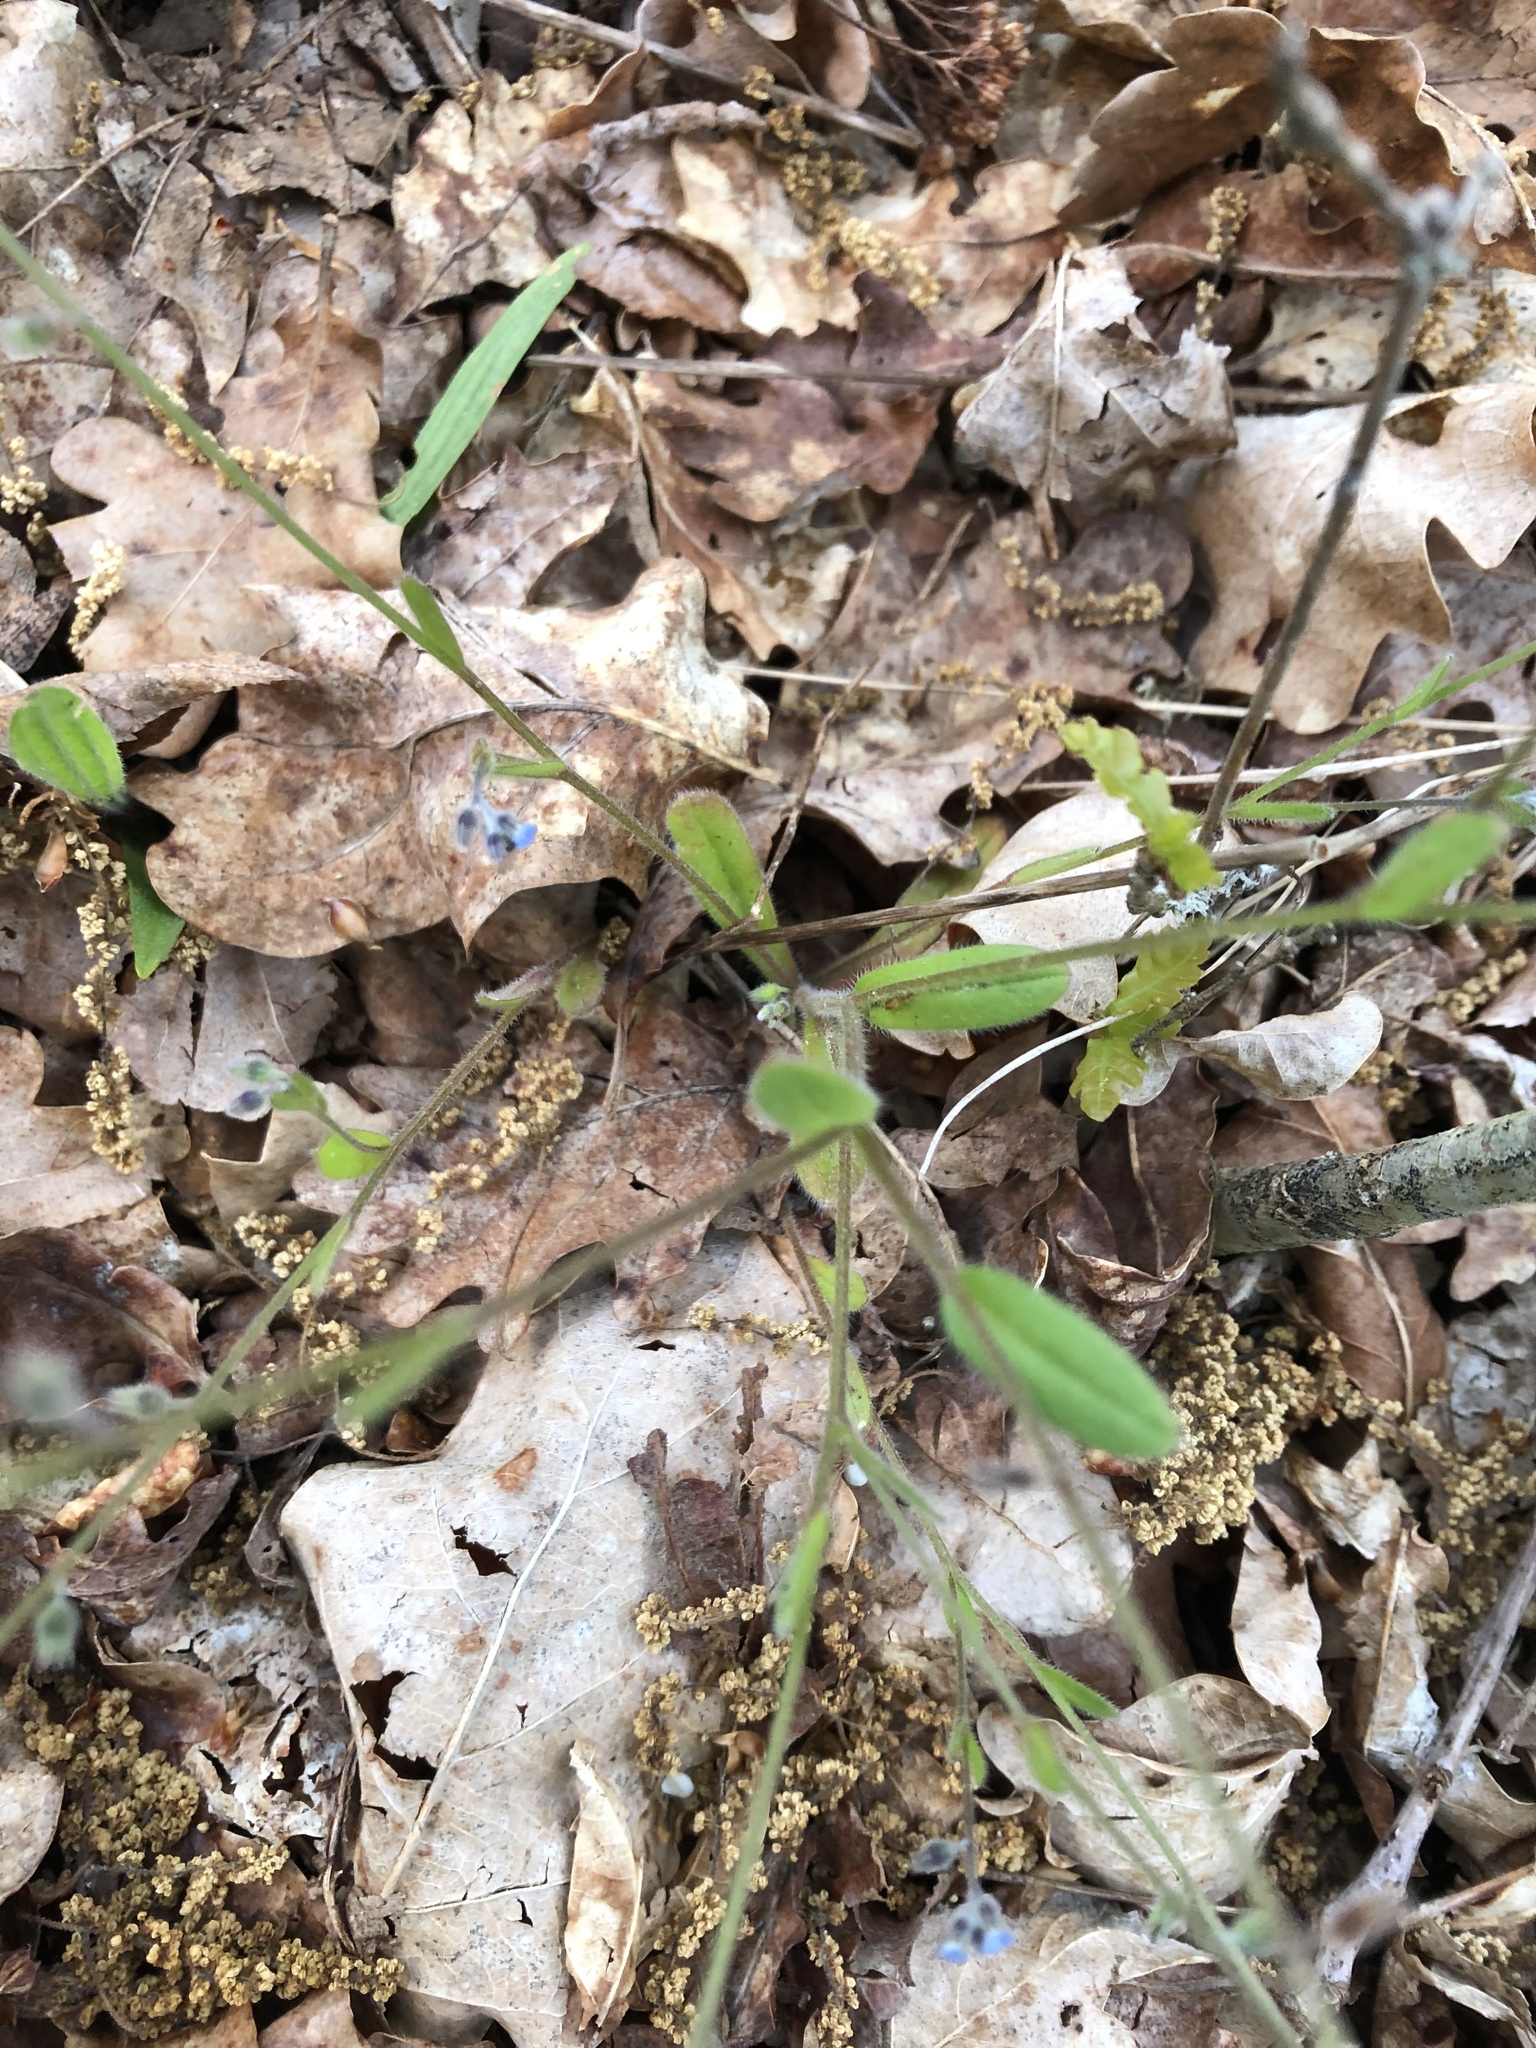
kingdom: Plantae
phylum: Tracheophyta
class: Magnoliopsida
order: Boraginales
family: Boraginaceae
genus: Myosotis
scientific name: Myosotis ramosissima
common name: Early forget-me-not
